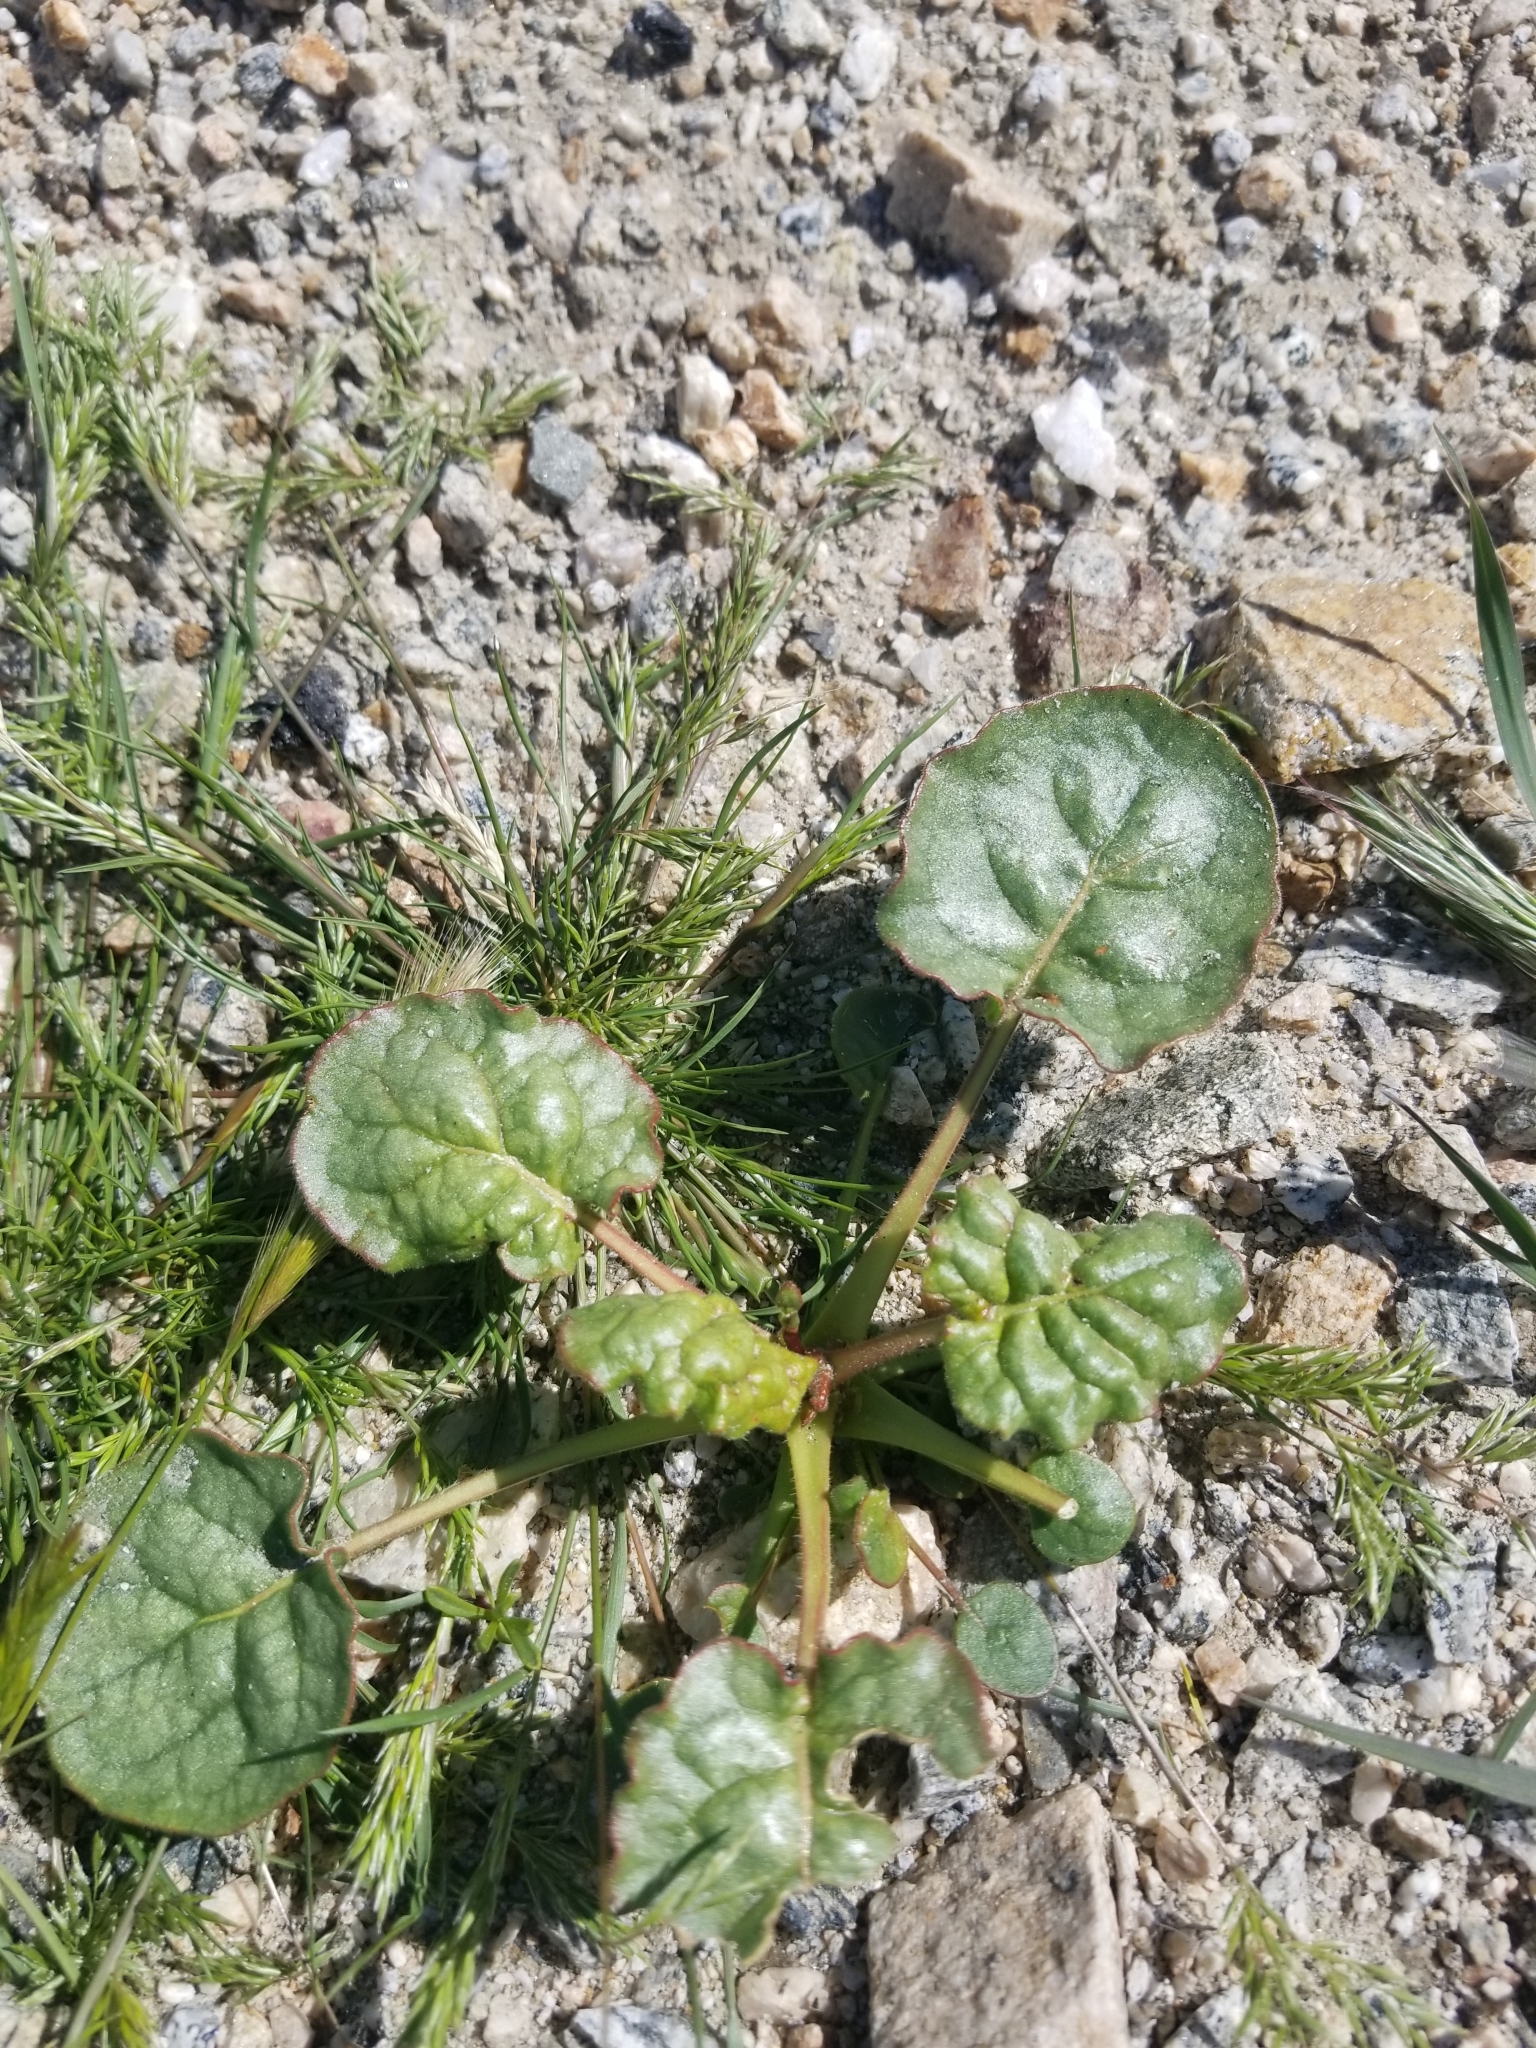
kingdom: Plantae
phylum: Tracheophyta
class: Magnoliopsida
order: Caryophyllales
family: Polygonaceae
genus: Eriogonum
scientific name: Eriogonum inflatum
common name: Desert trumpet
